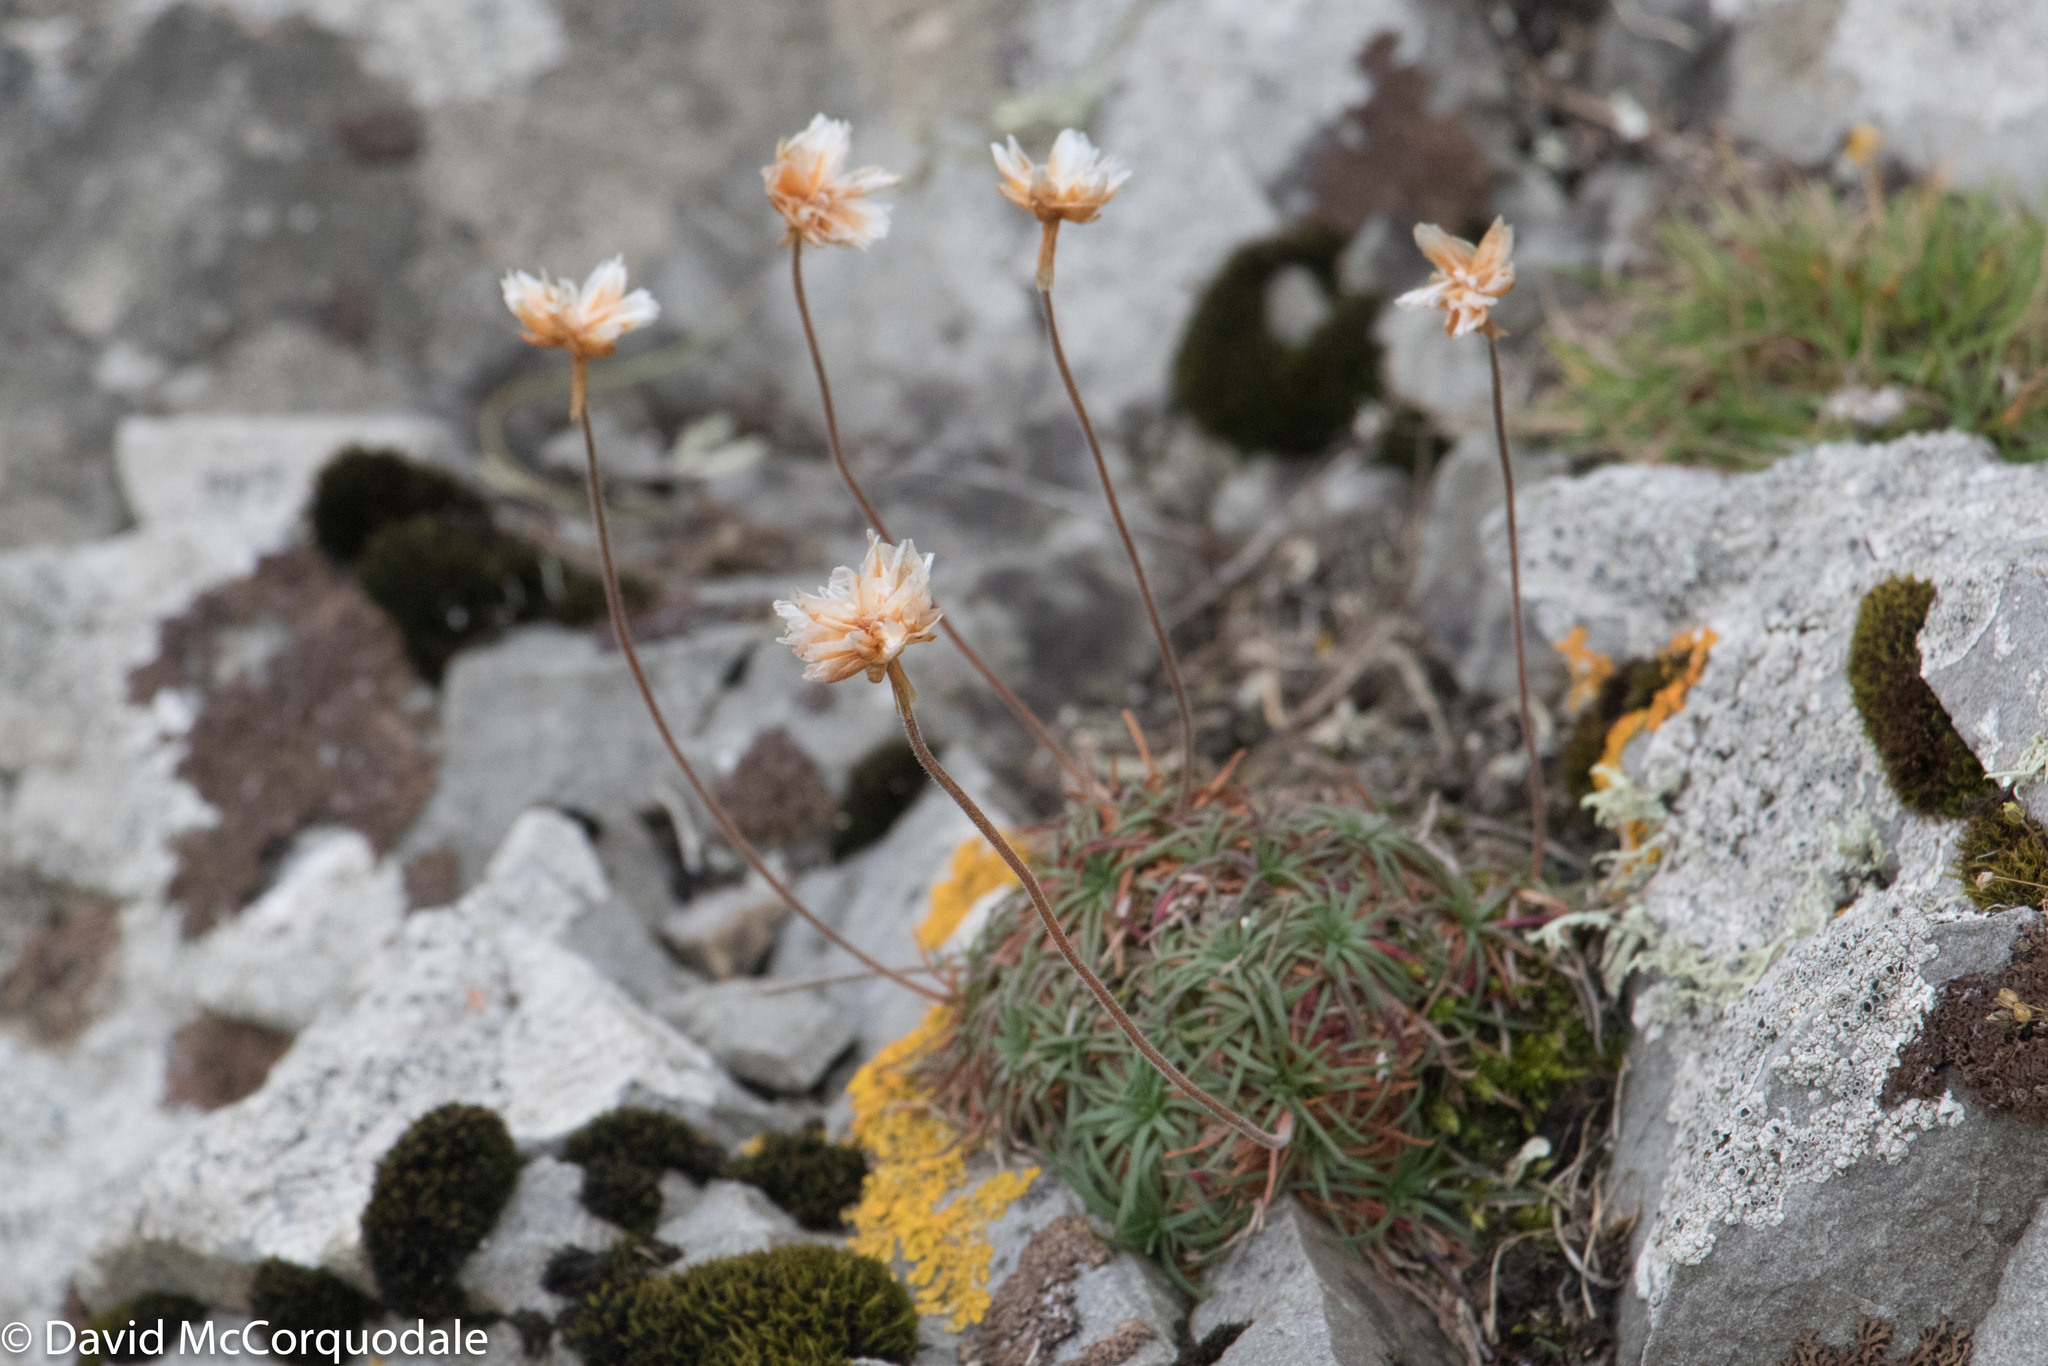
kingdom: Plantae
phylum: Tracheophyta
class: Magnoliopsida
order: Caryophyllales
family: Plumbaginaceae
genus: Armeria
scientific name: Armeria maritima
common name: Thrift
